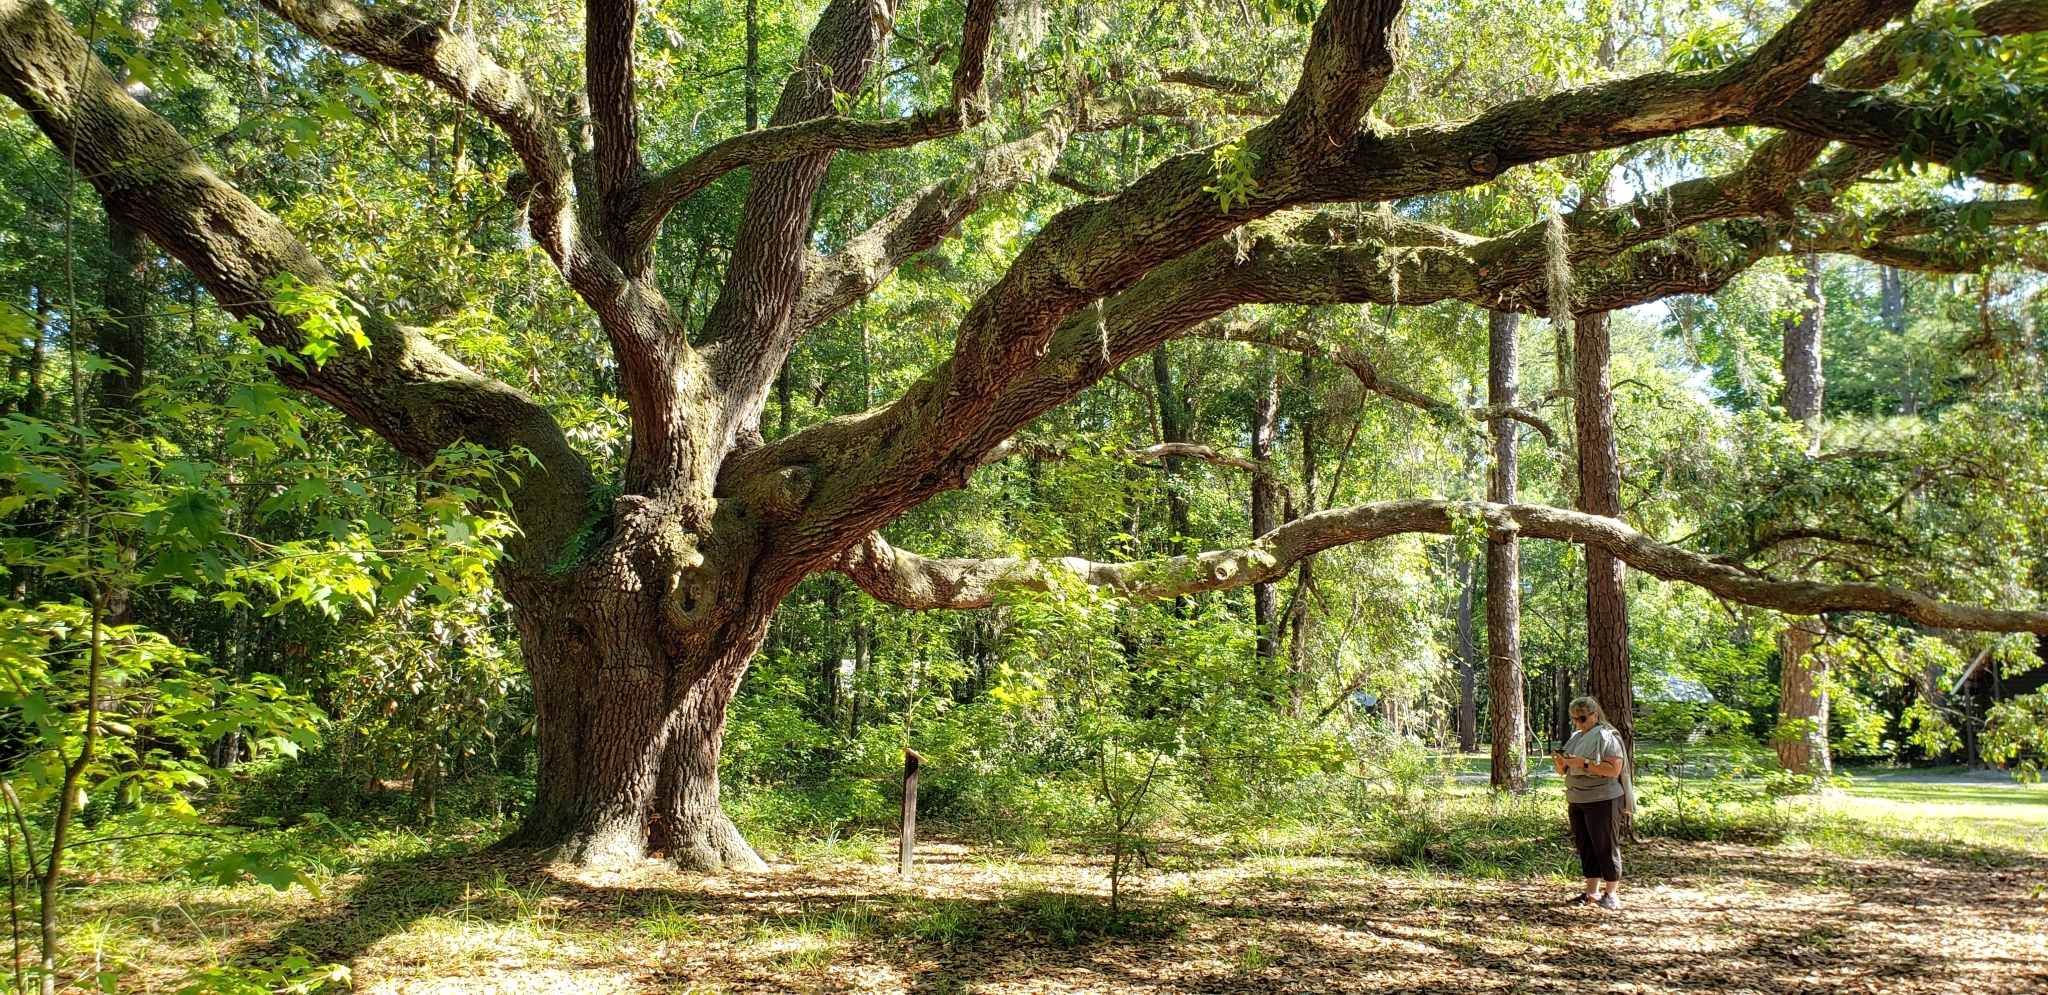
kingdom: Plantae
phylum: Tracheophyta
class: Magnoliopsida
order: Fagales
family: Fagaceae
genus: Quercus
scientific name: Quercus virginiana
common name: Southern live oak
